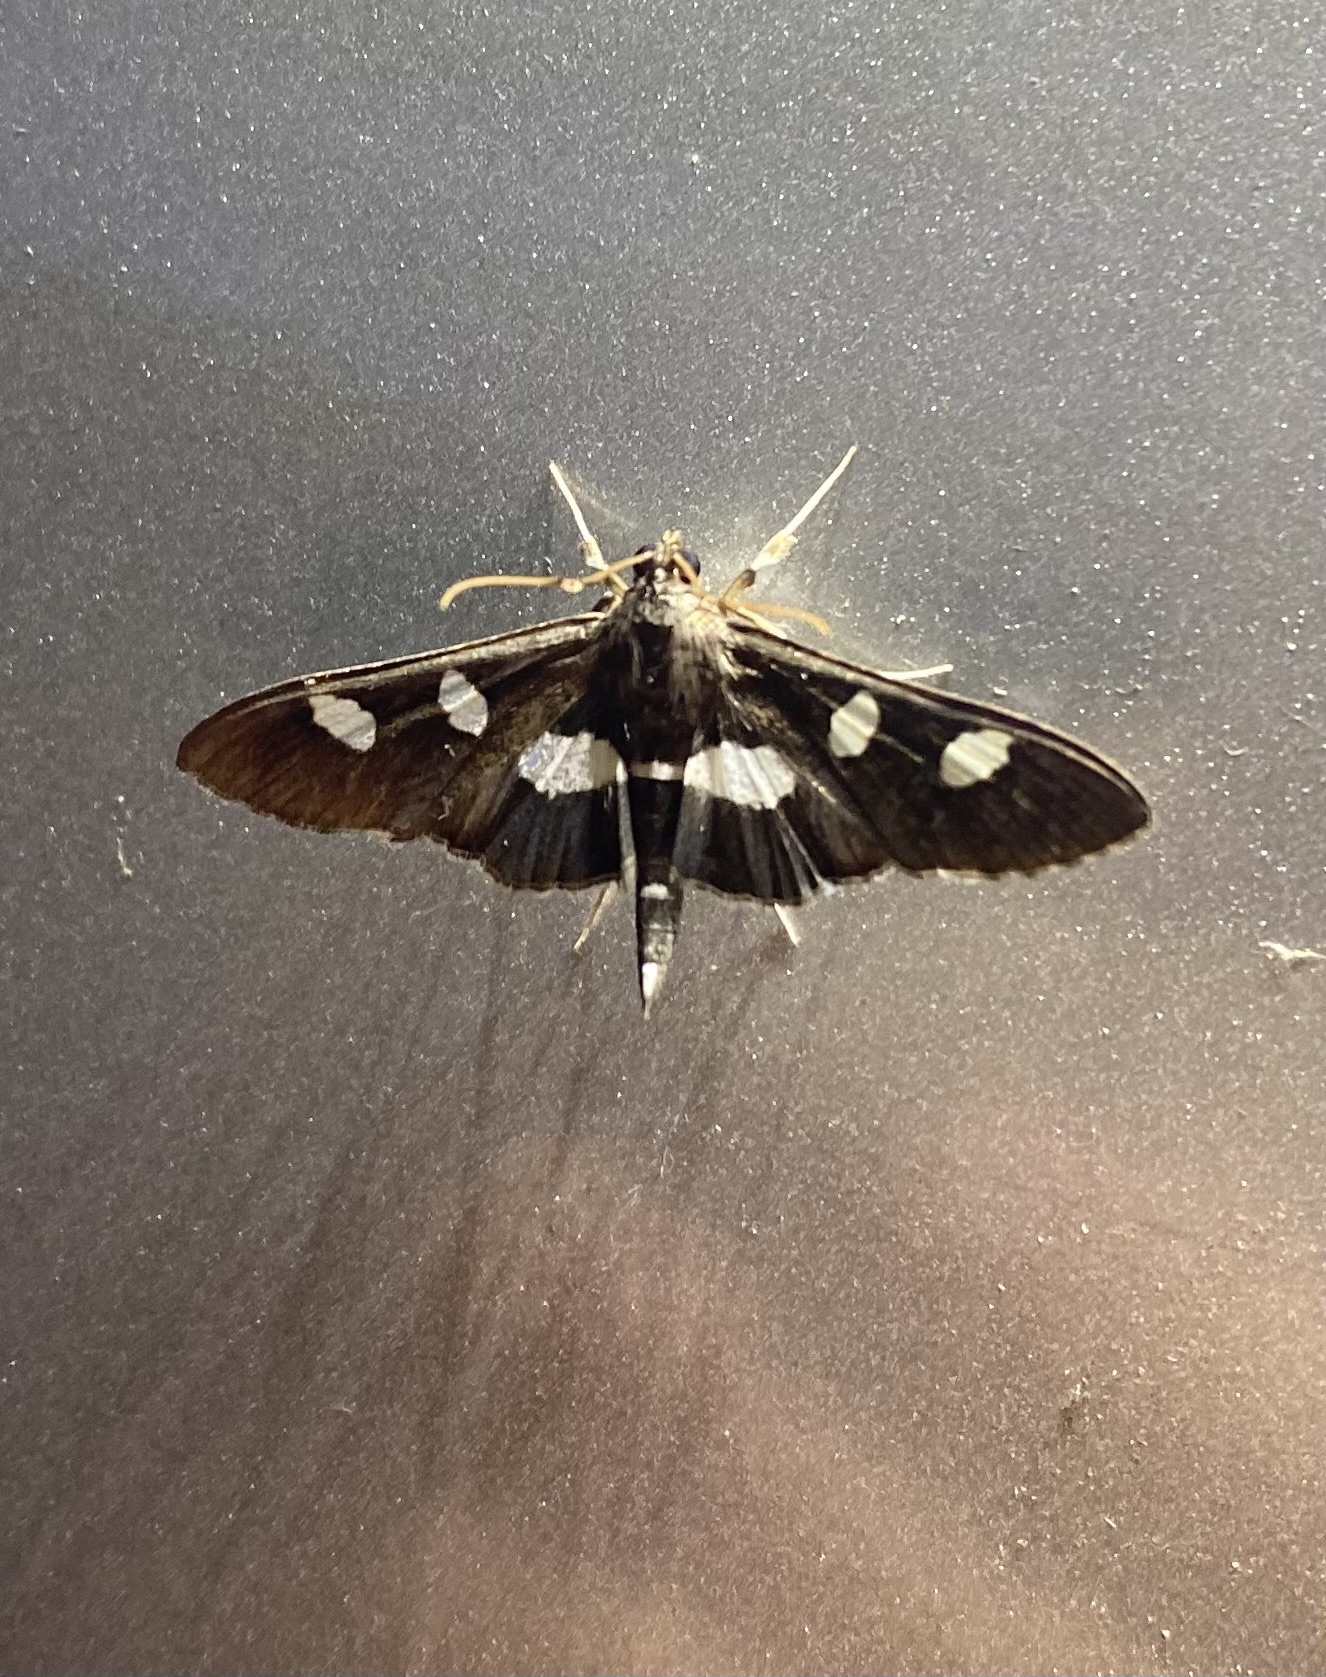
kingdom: Animalia
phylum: Arthropoda
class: Insecta
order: Lepidoptera
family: Crambidae
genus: Desmia
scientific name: Desmia
